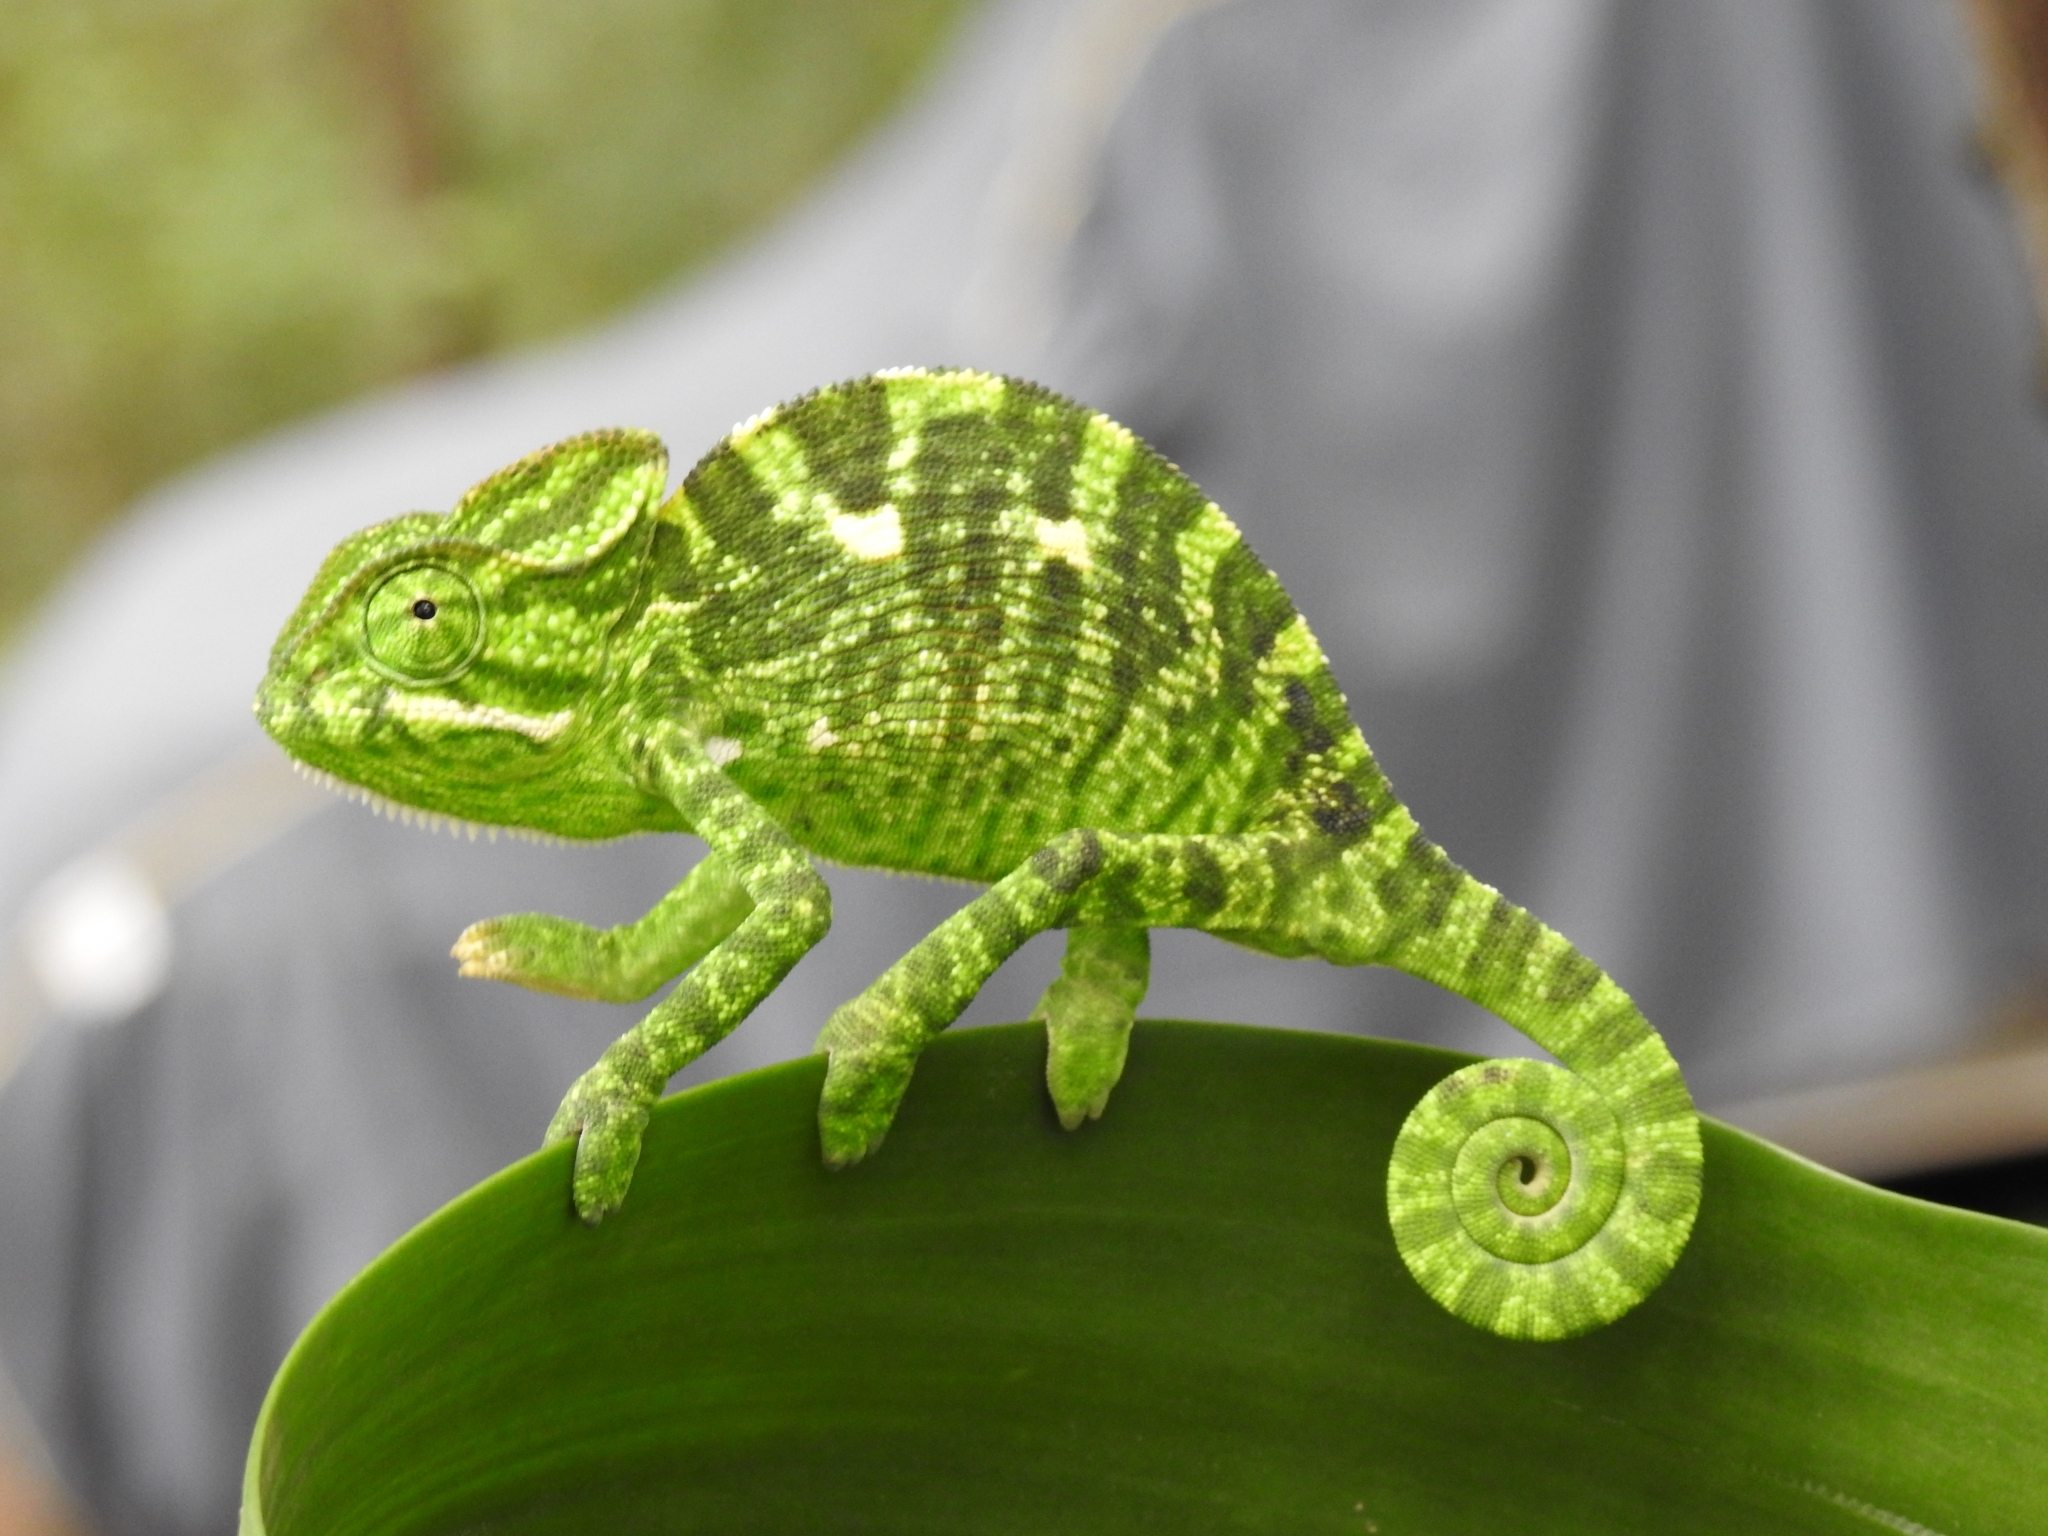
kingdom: Animalia
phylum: Chordata
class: Squamata
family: Chamaeleonidae
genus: Chamaeleo
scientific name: Chamaeleo zeylanicus
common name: Indian chameleon
